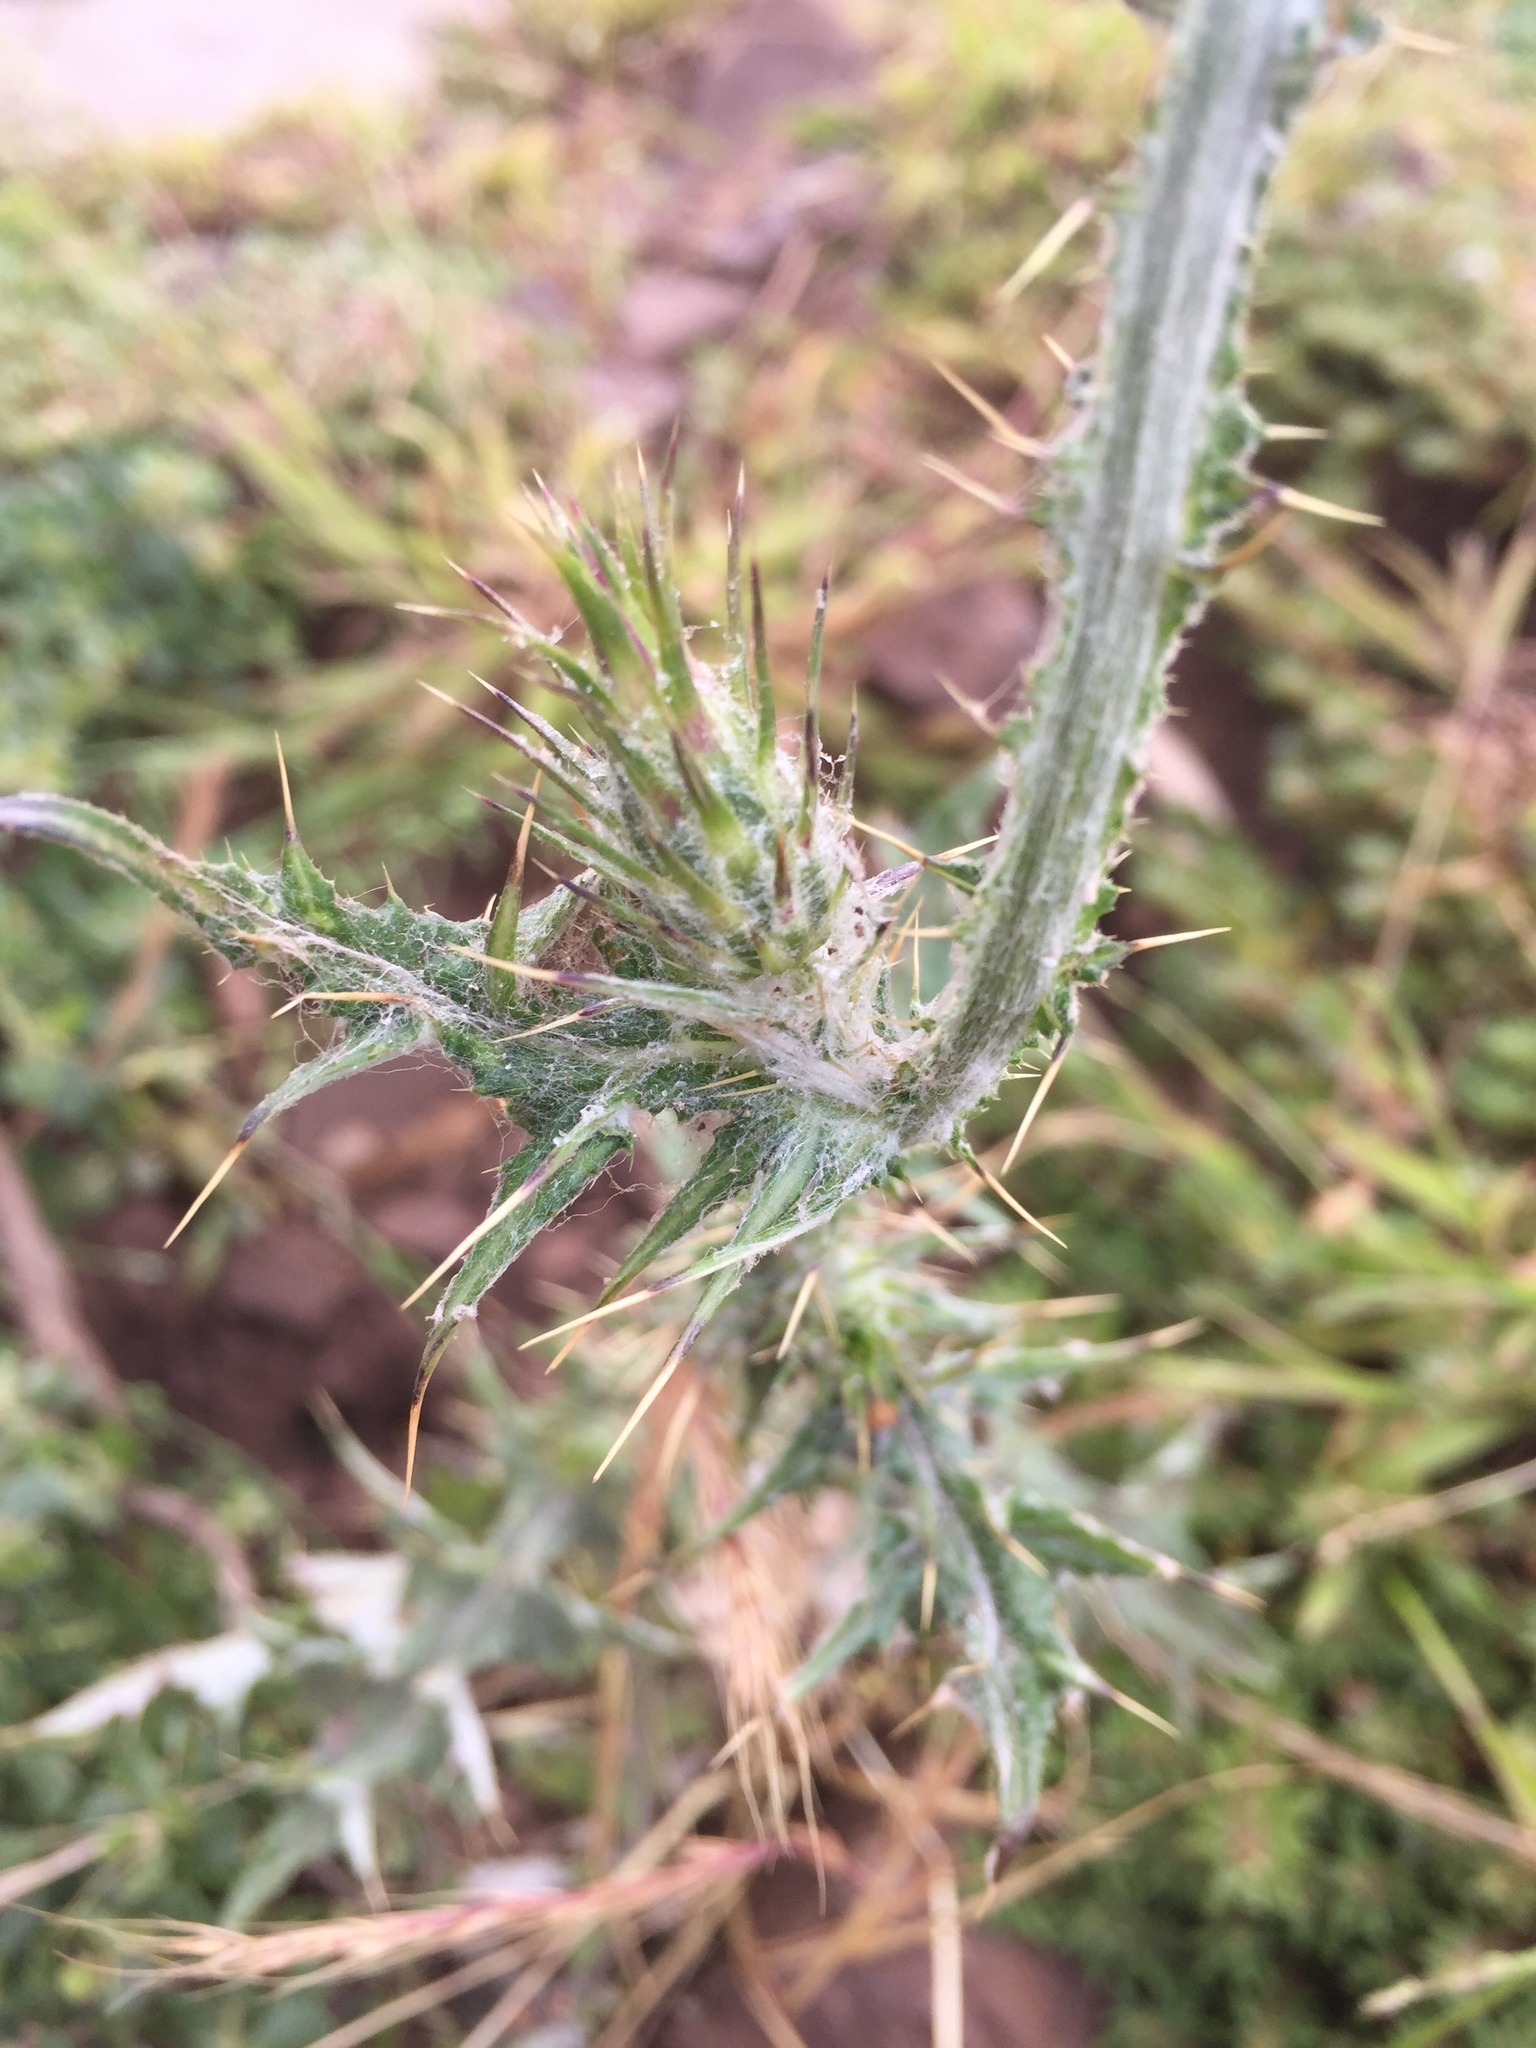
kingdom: Plantae
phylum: Tracheophyta
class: Magnoliopsida
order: Asterales
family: Asteraceae
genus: Carduus
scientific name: Carduus pycnocephalus
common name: Plymouth thistle
